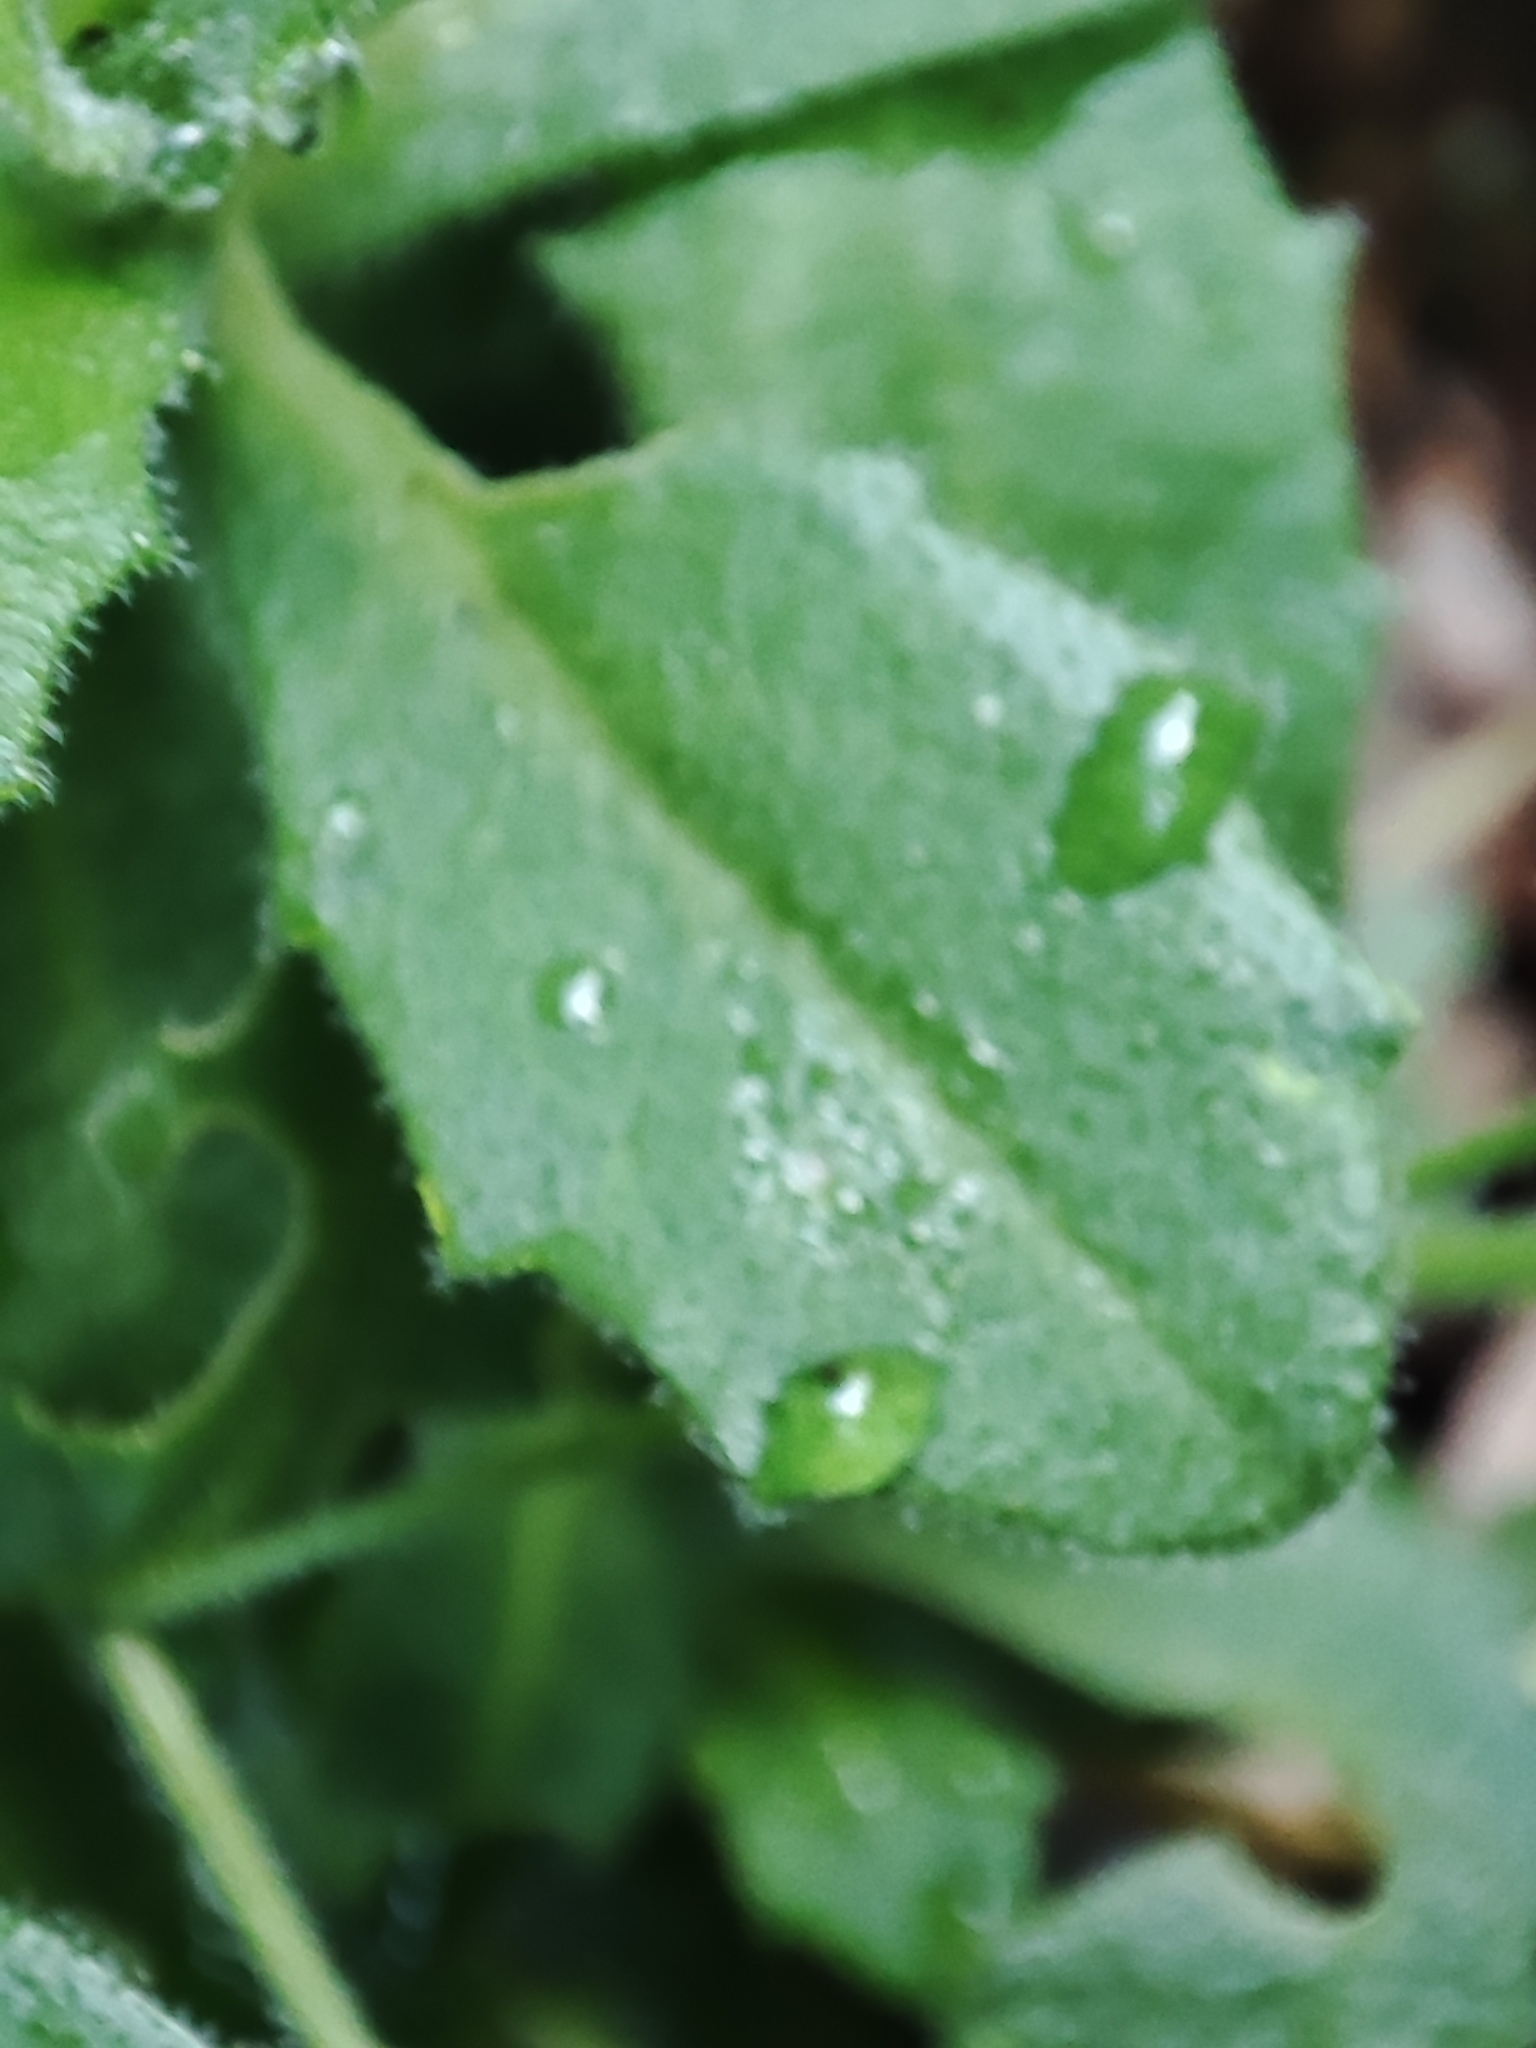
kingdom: Plantae
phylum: Tracheophyta
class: Magnoliopsida
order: Brassicales
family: Brassicaceae
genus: Arabis
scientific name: Arabis alpina
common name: Alpine rock-cress
